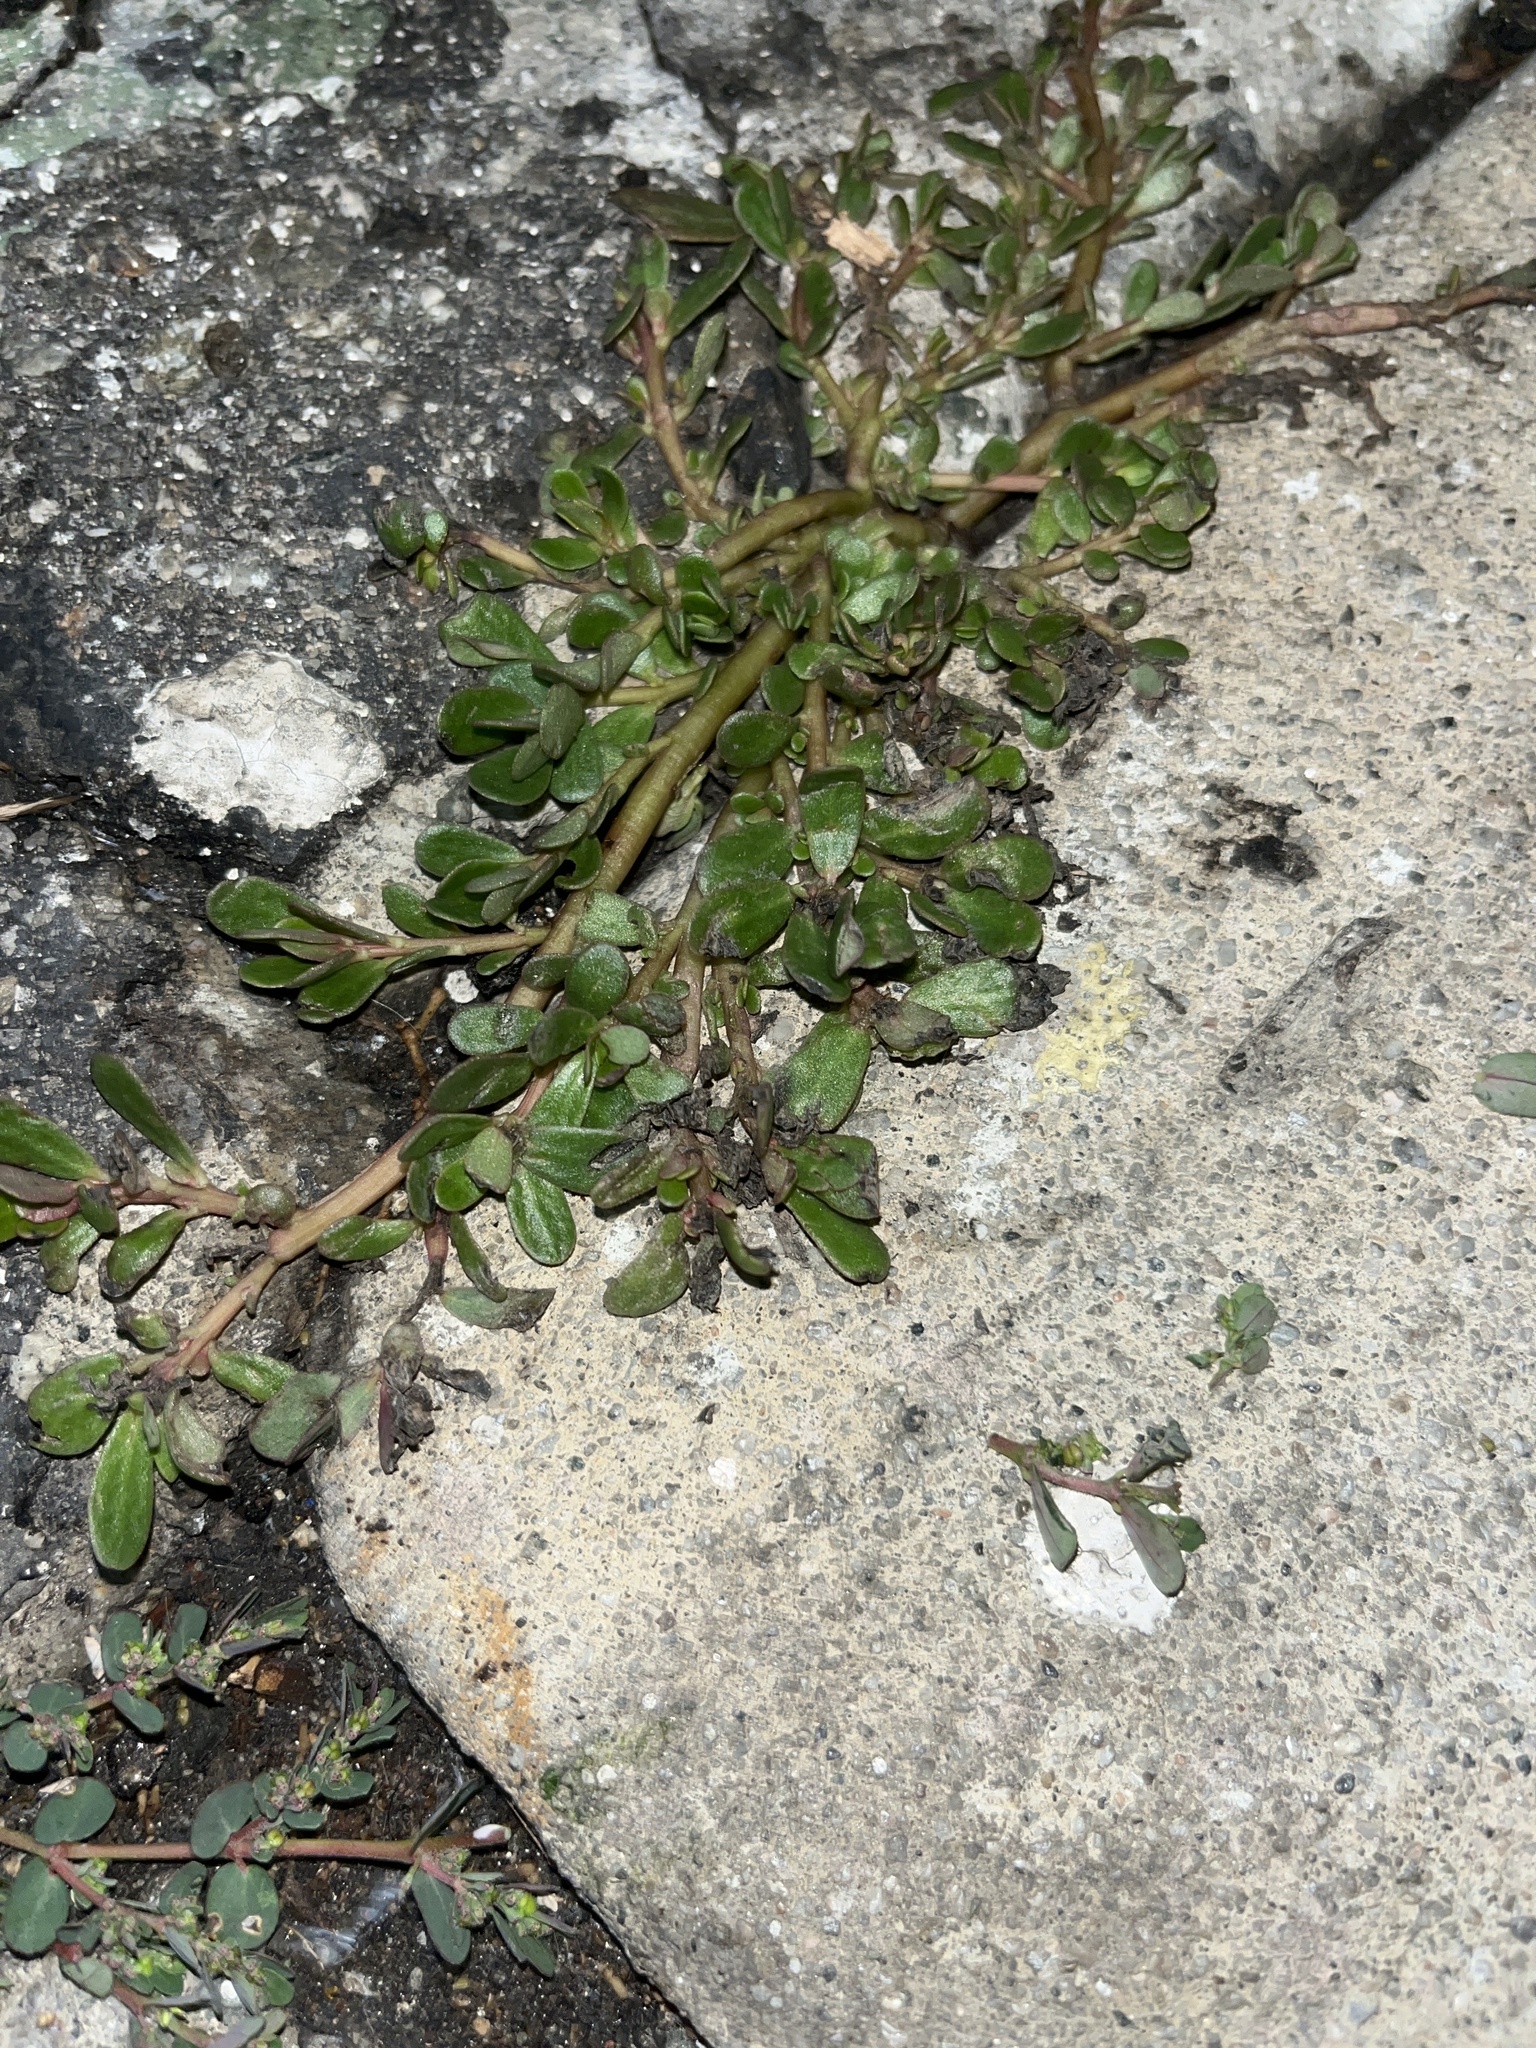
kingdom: Plantae
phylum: Tracheophyta
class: Magnoliopsida
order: Caryophyllales
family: Portulacaceae
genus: Portulaca
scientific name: Portulaca oleracea
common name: Common purslane
